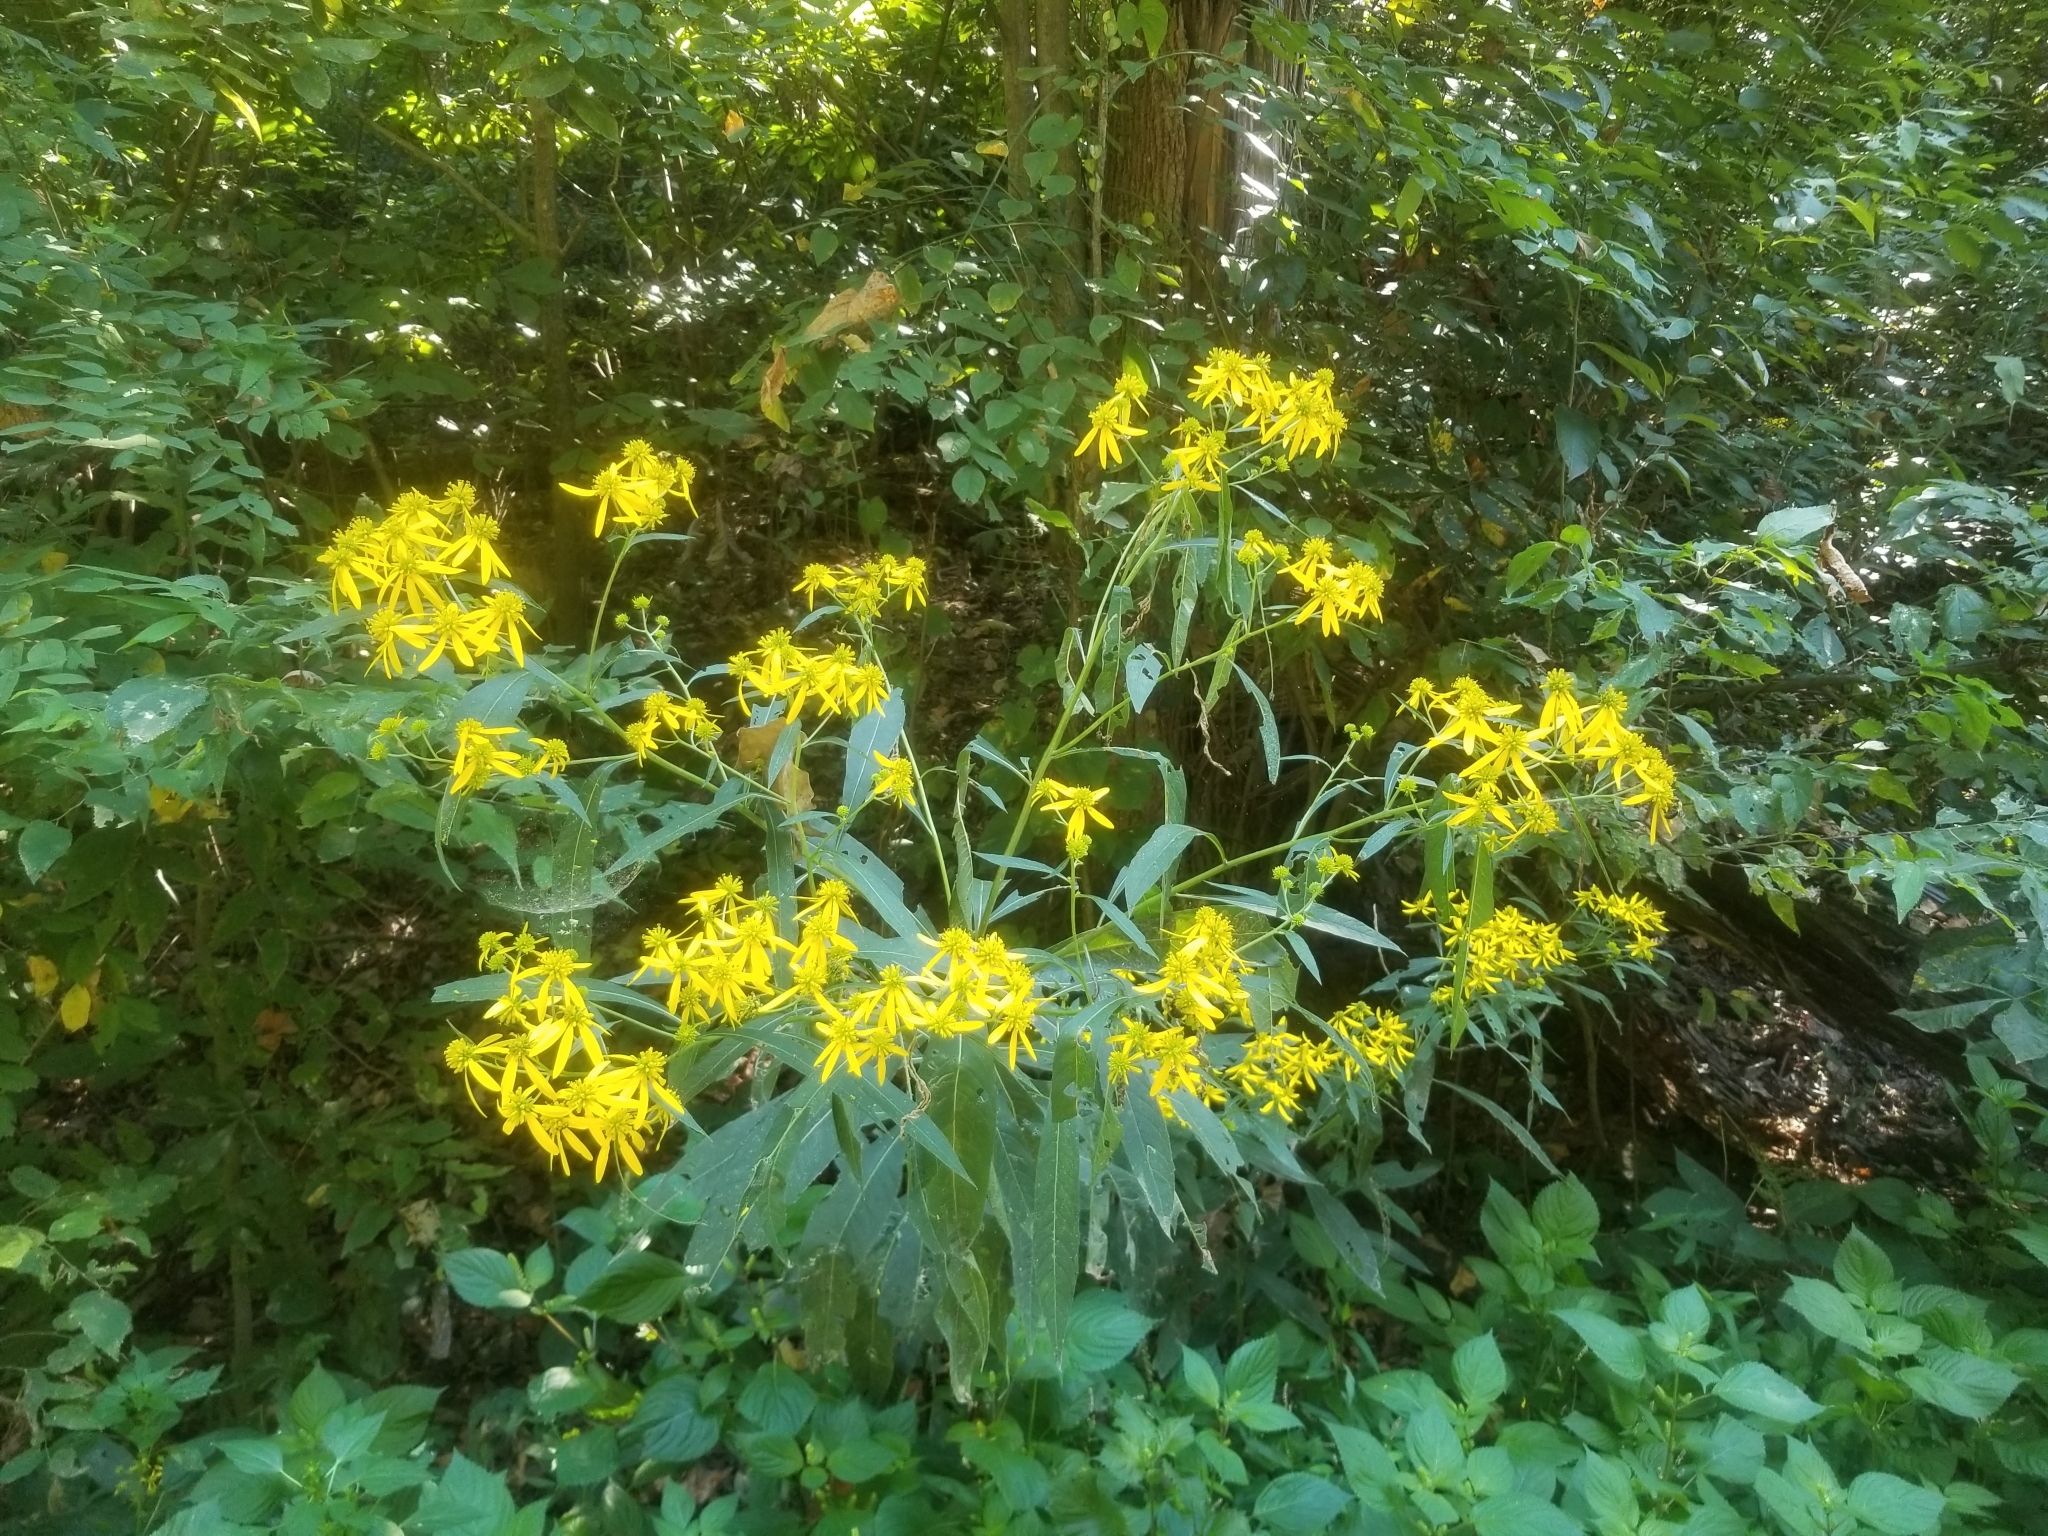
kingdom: Plantae
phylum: Tracheophyta
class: Magnoliopsida
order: Asterales
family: Asteraceae
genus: Verbesina
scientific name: Verbesina alternifolia
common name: Wingstem
